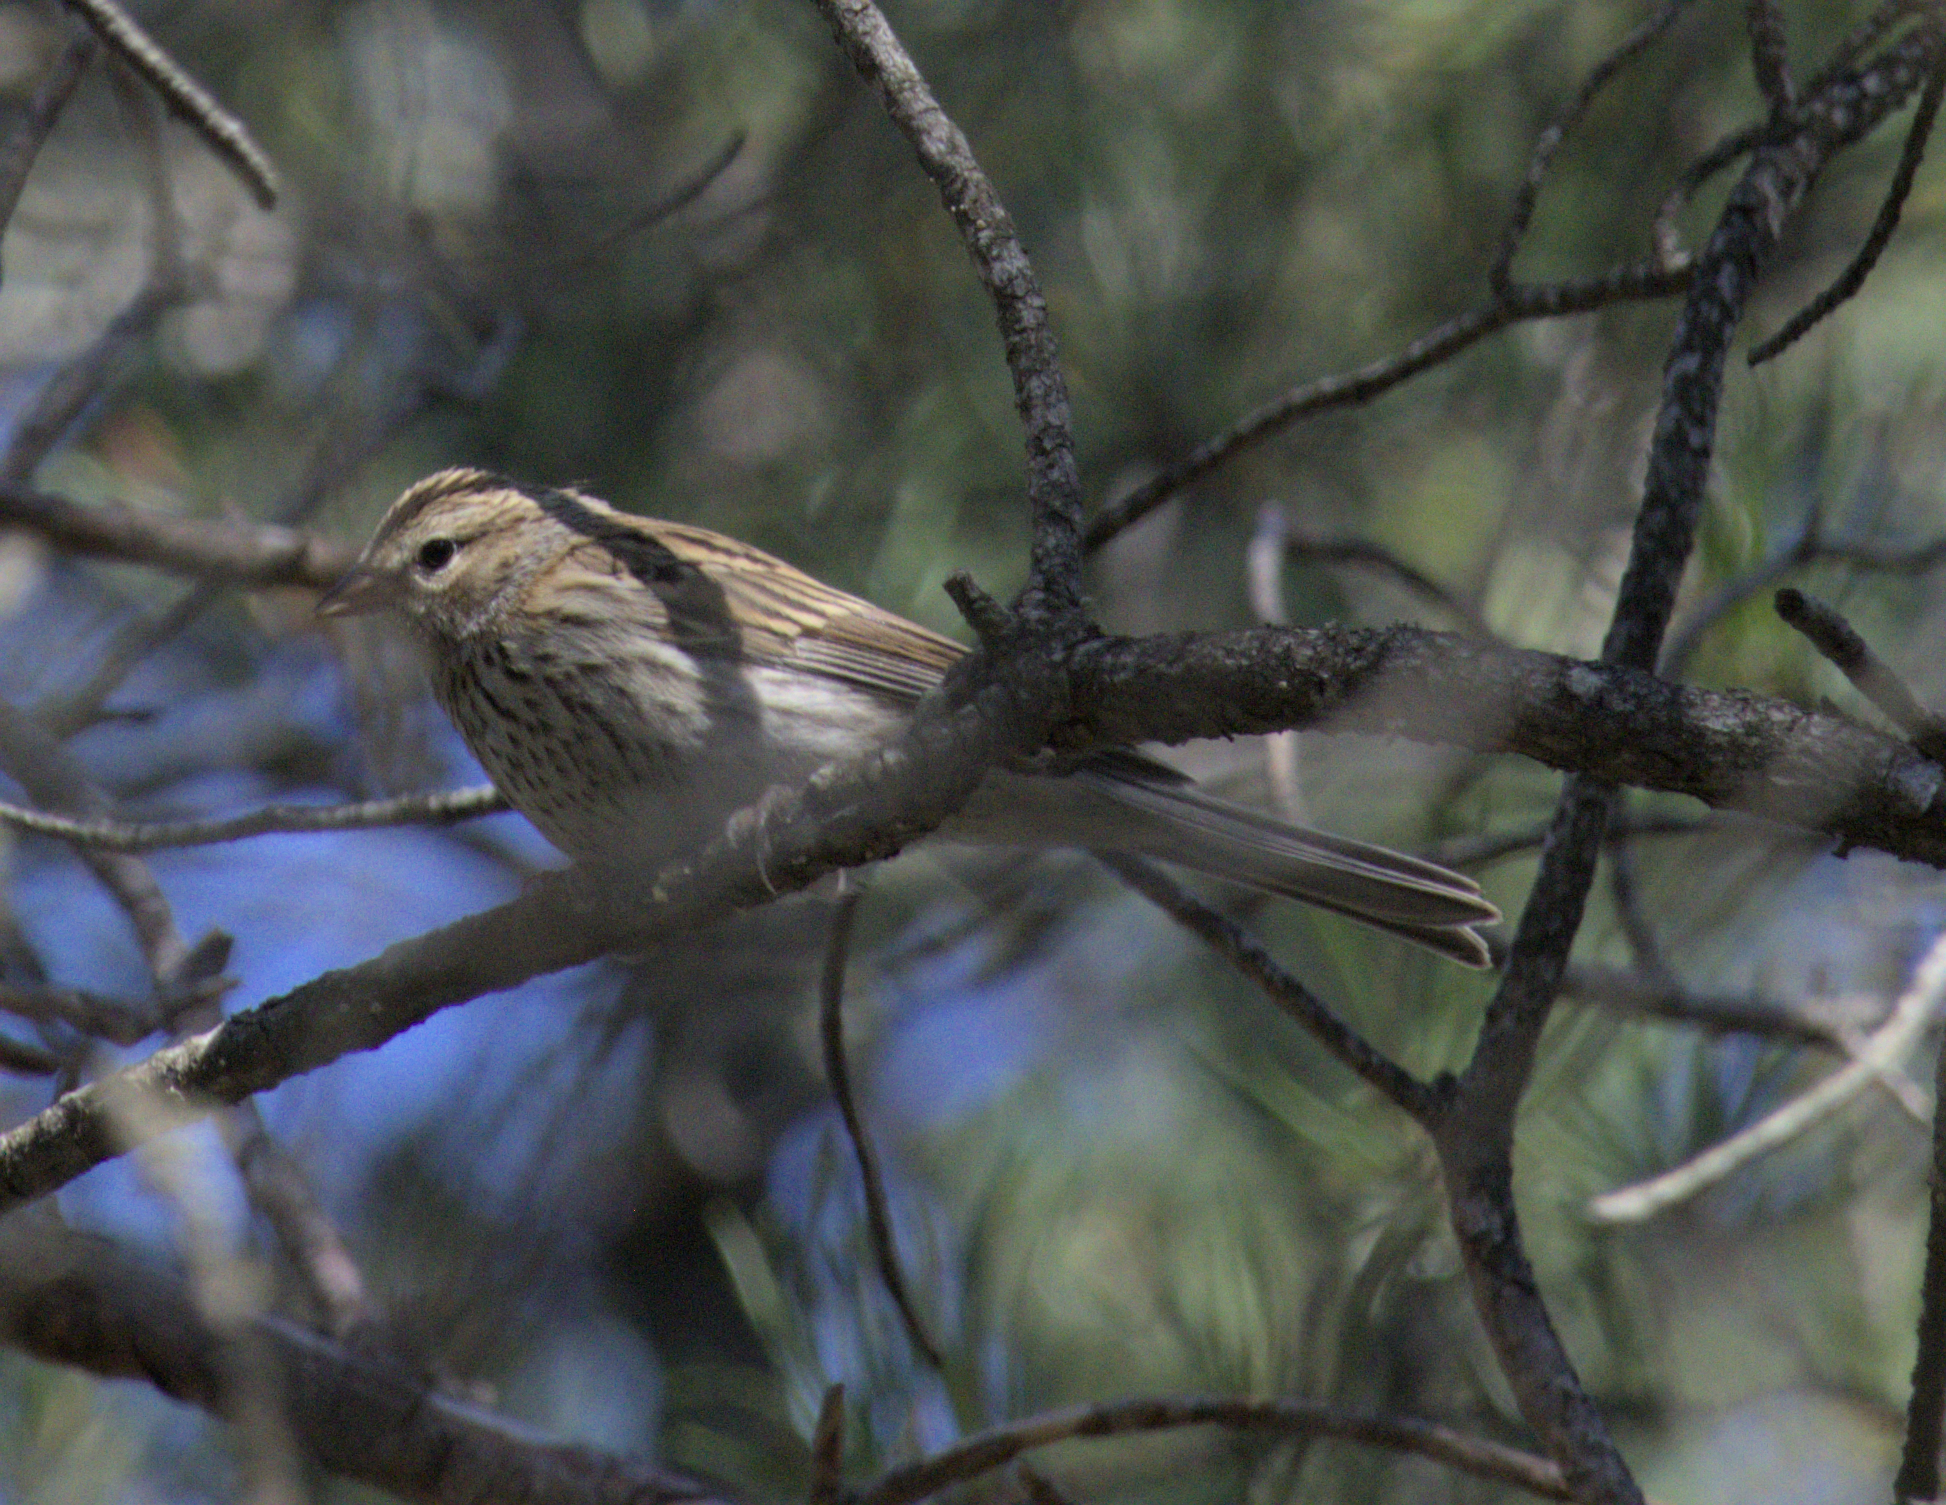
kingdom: Animalia
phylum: Chordata
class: Aves
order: Passeriformes
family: Passerellidae
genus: Spizella
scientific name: Spizella passerina
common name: Chipping sparrow
